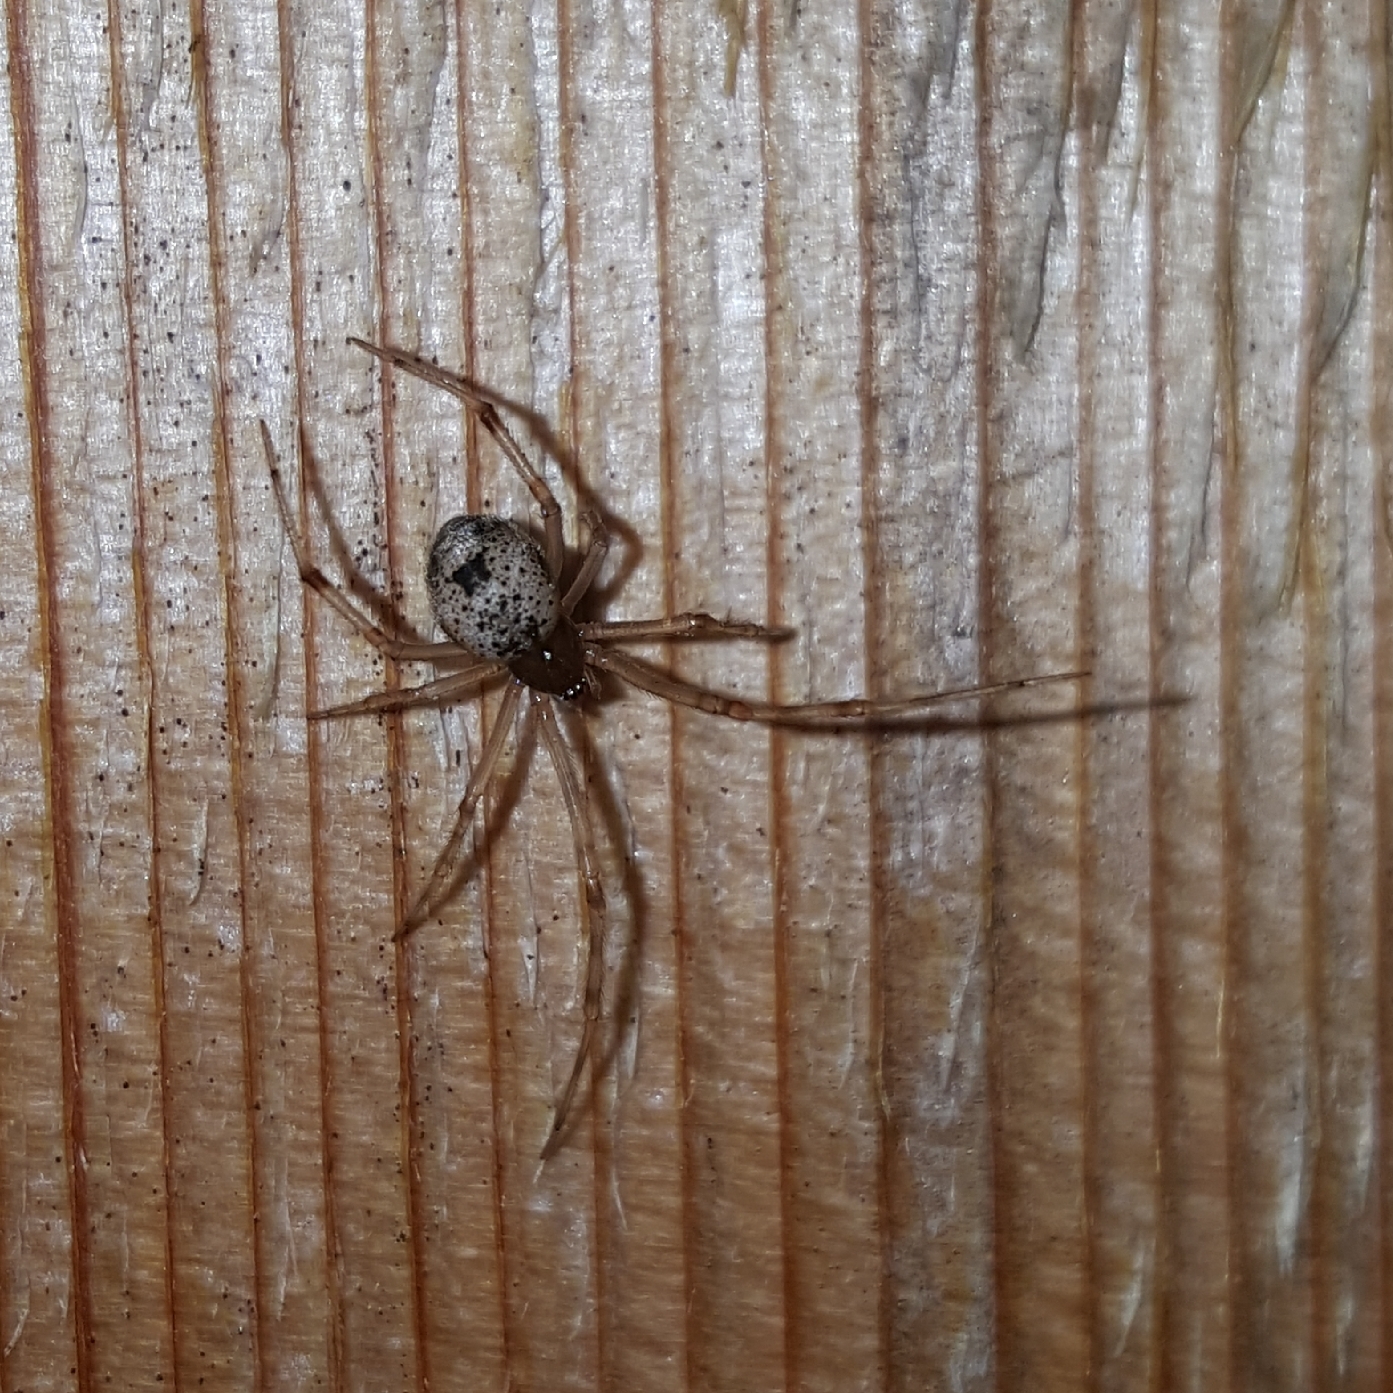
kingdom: Animalia
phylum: Arthropoda
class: Arachnida
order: Araneae
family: Theridiidae
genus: Parasteatoda
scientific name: Parasteatoda tepidariorum
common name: Common house spider
